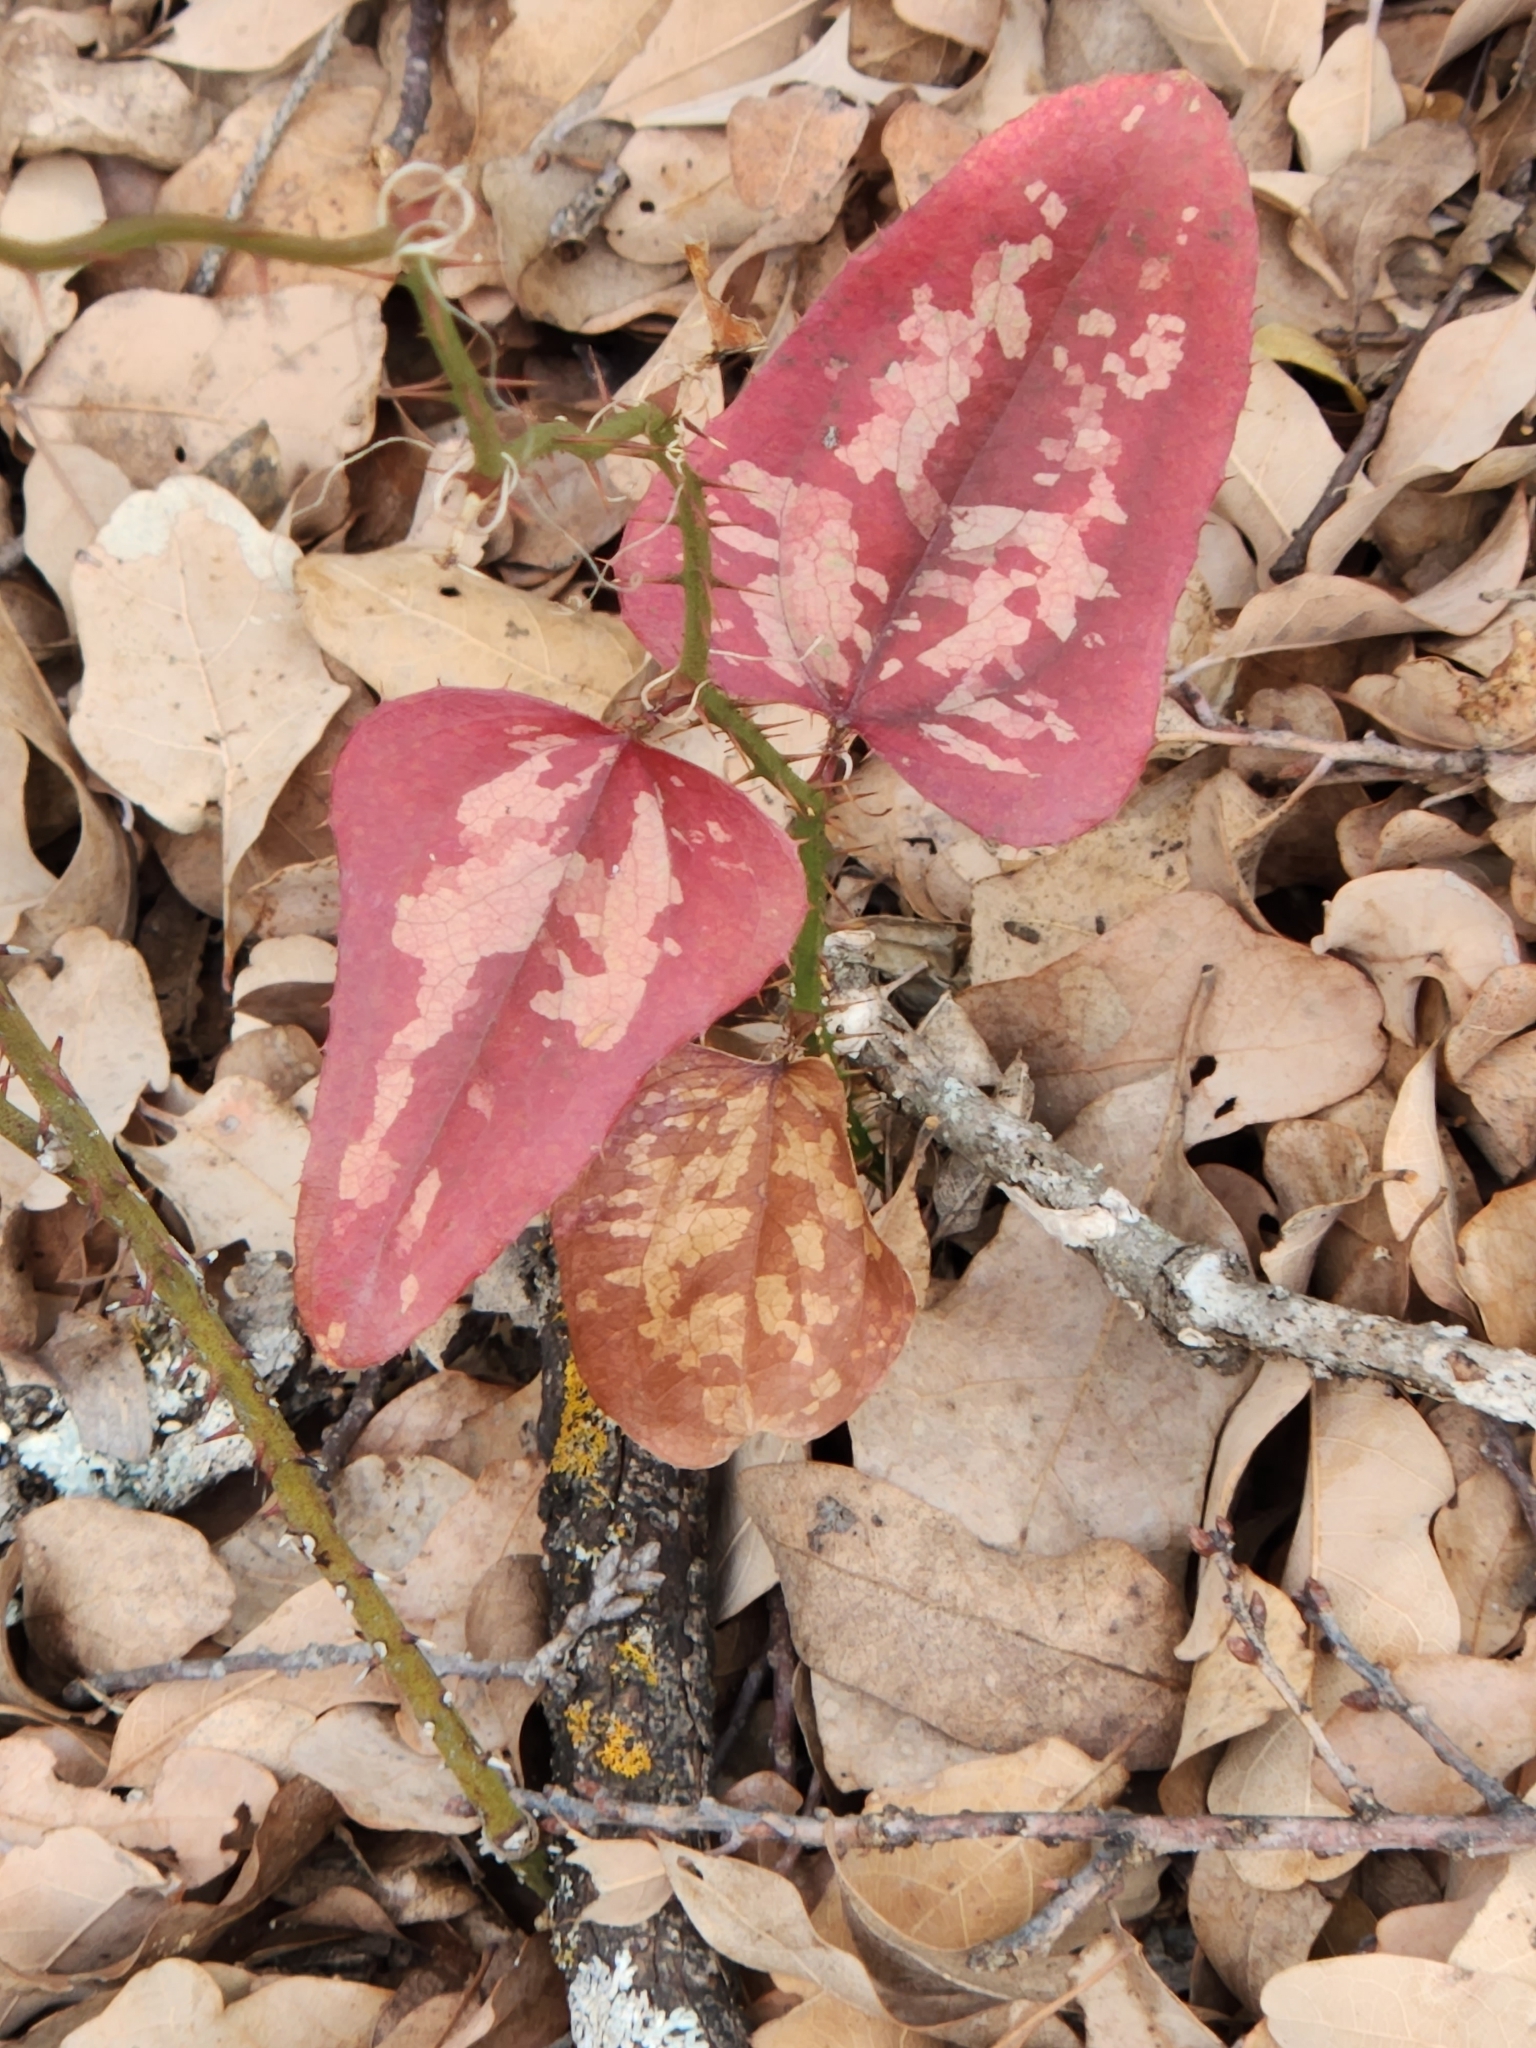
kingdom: Plantae
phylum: Tracheophyta
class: Liliopsida
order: Liliales
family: Smilacaceae
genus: Smilax
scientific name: Smilax bona-nox
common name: Catbrier
